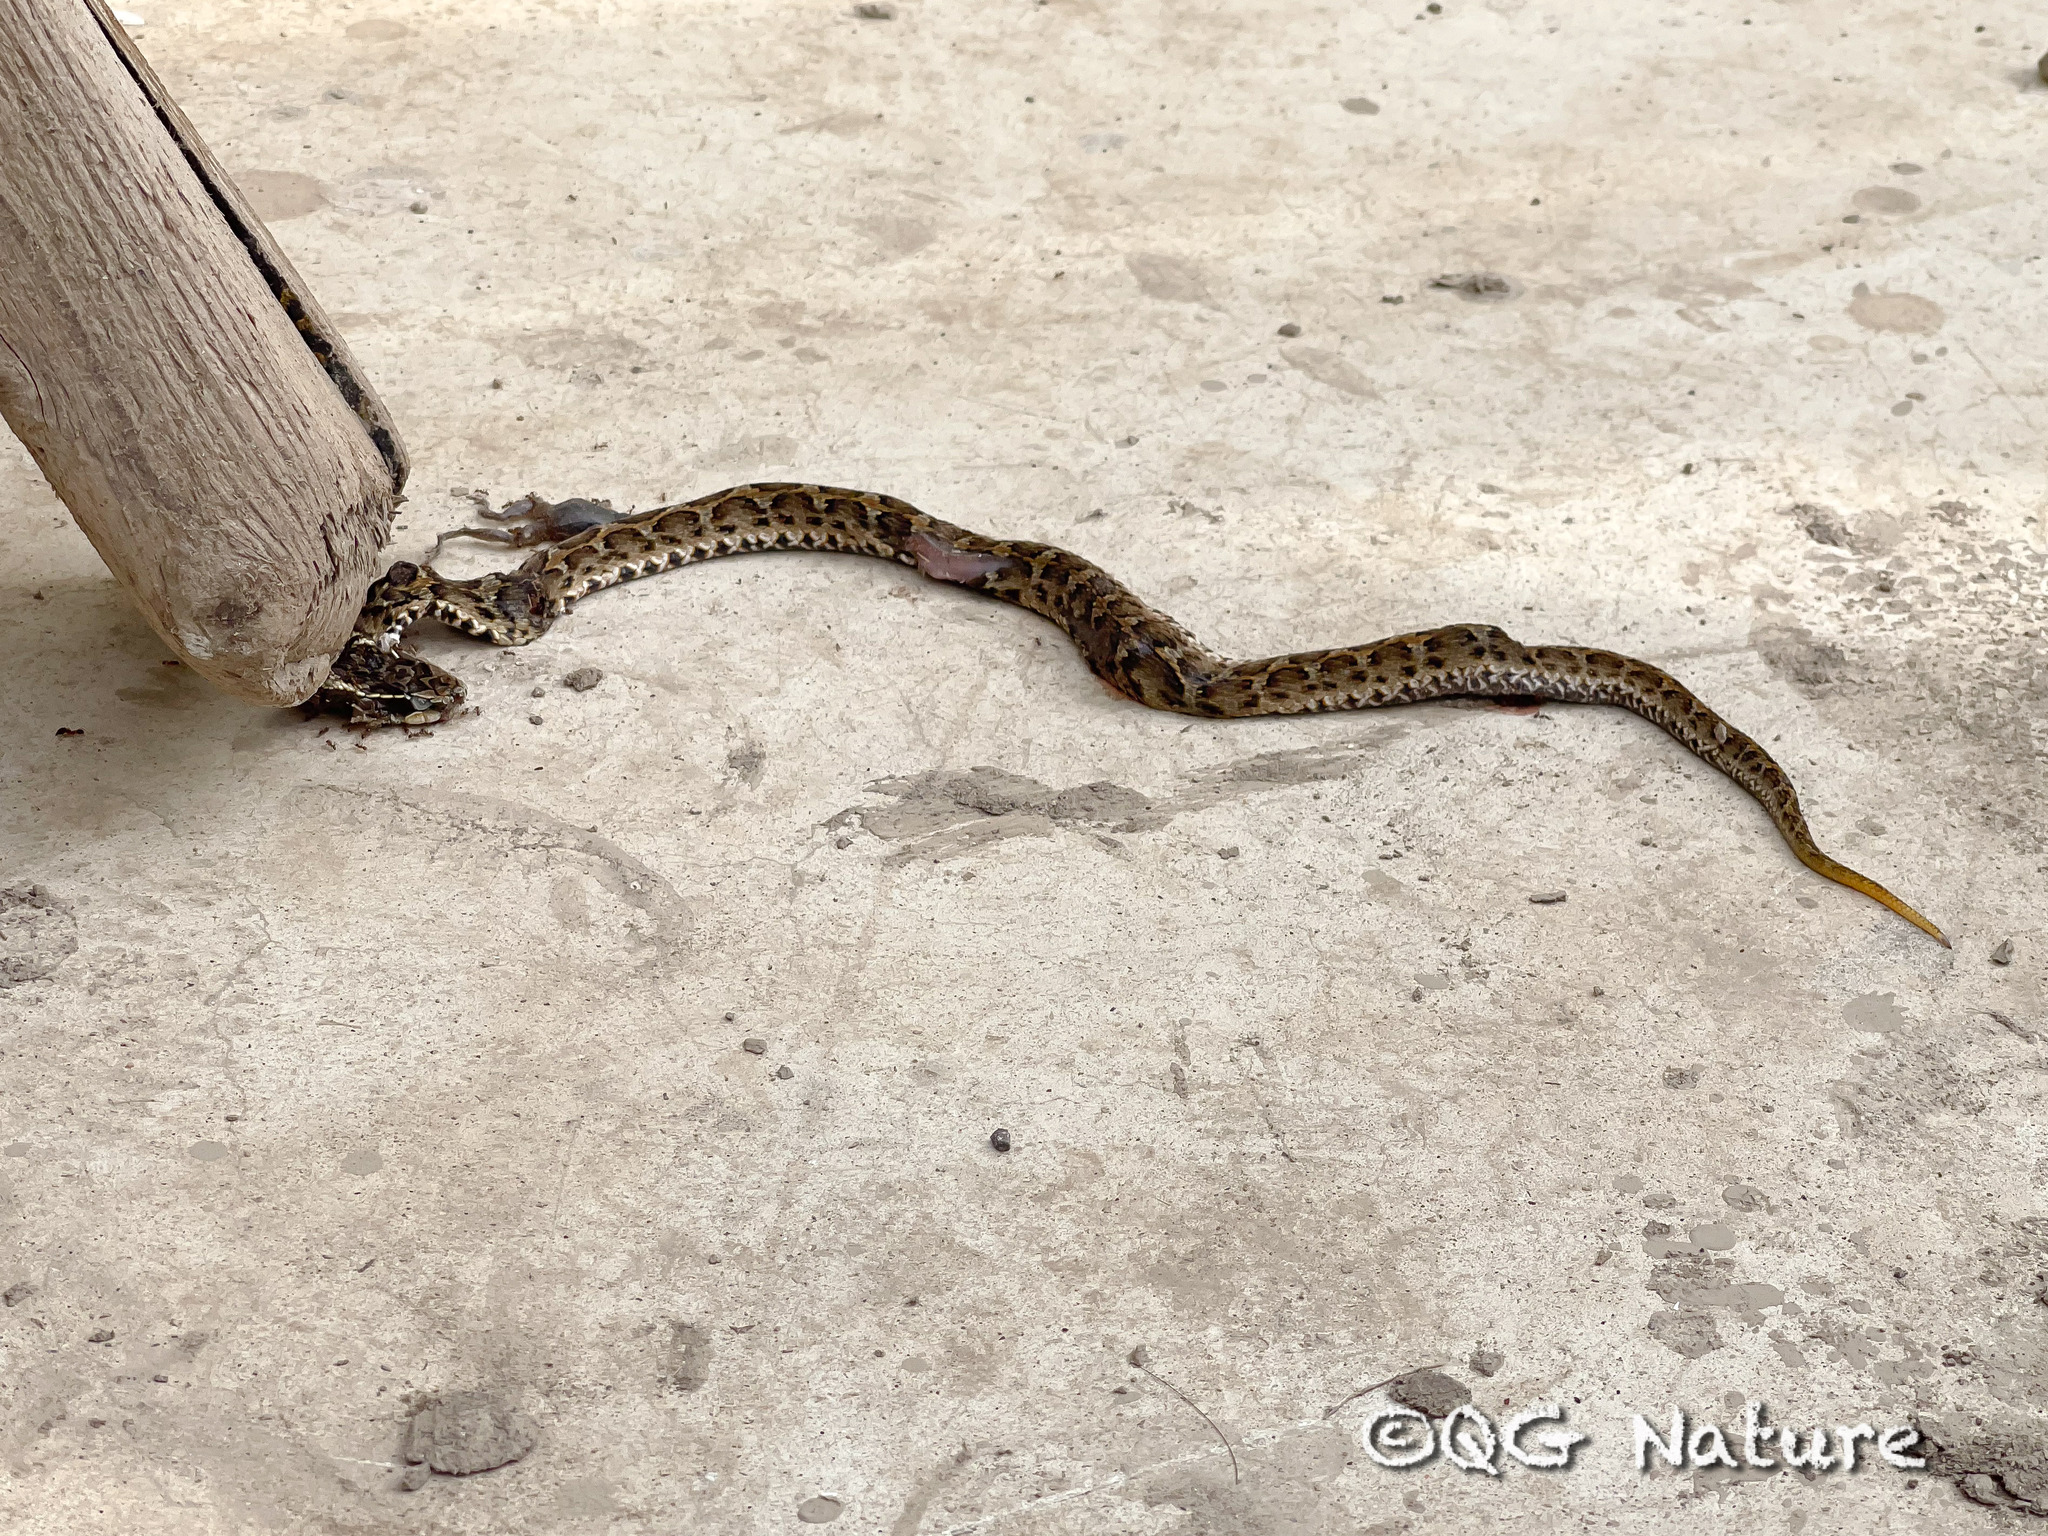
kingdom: Animalia
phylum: Chordata
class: Squamata
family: Viperidae
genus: Gloydius
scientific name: Gloydius brevicauda
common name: Short-tailed mamushi
